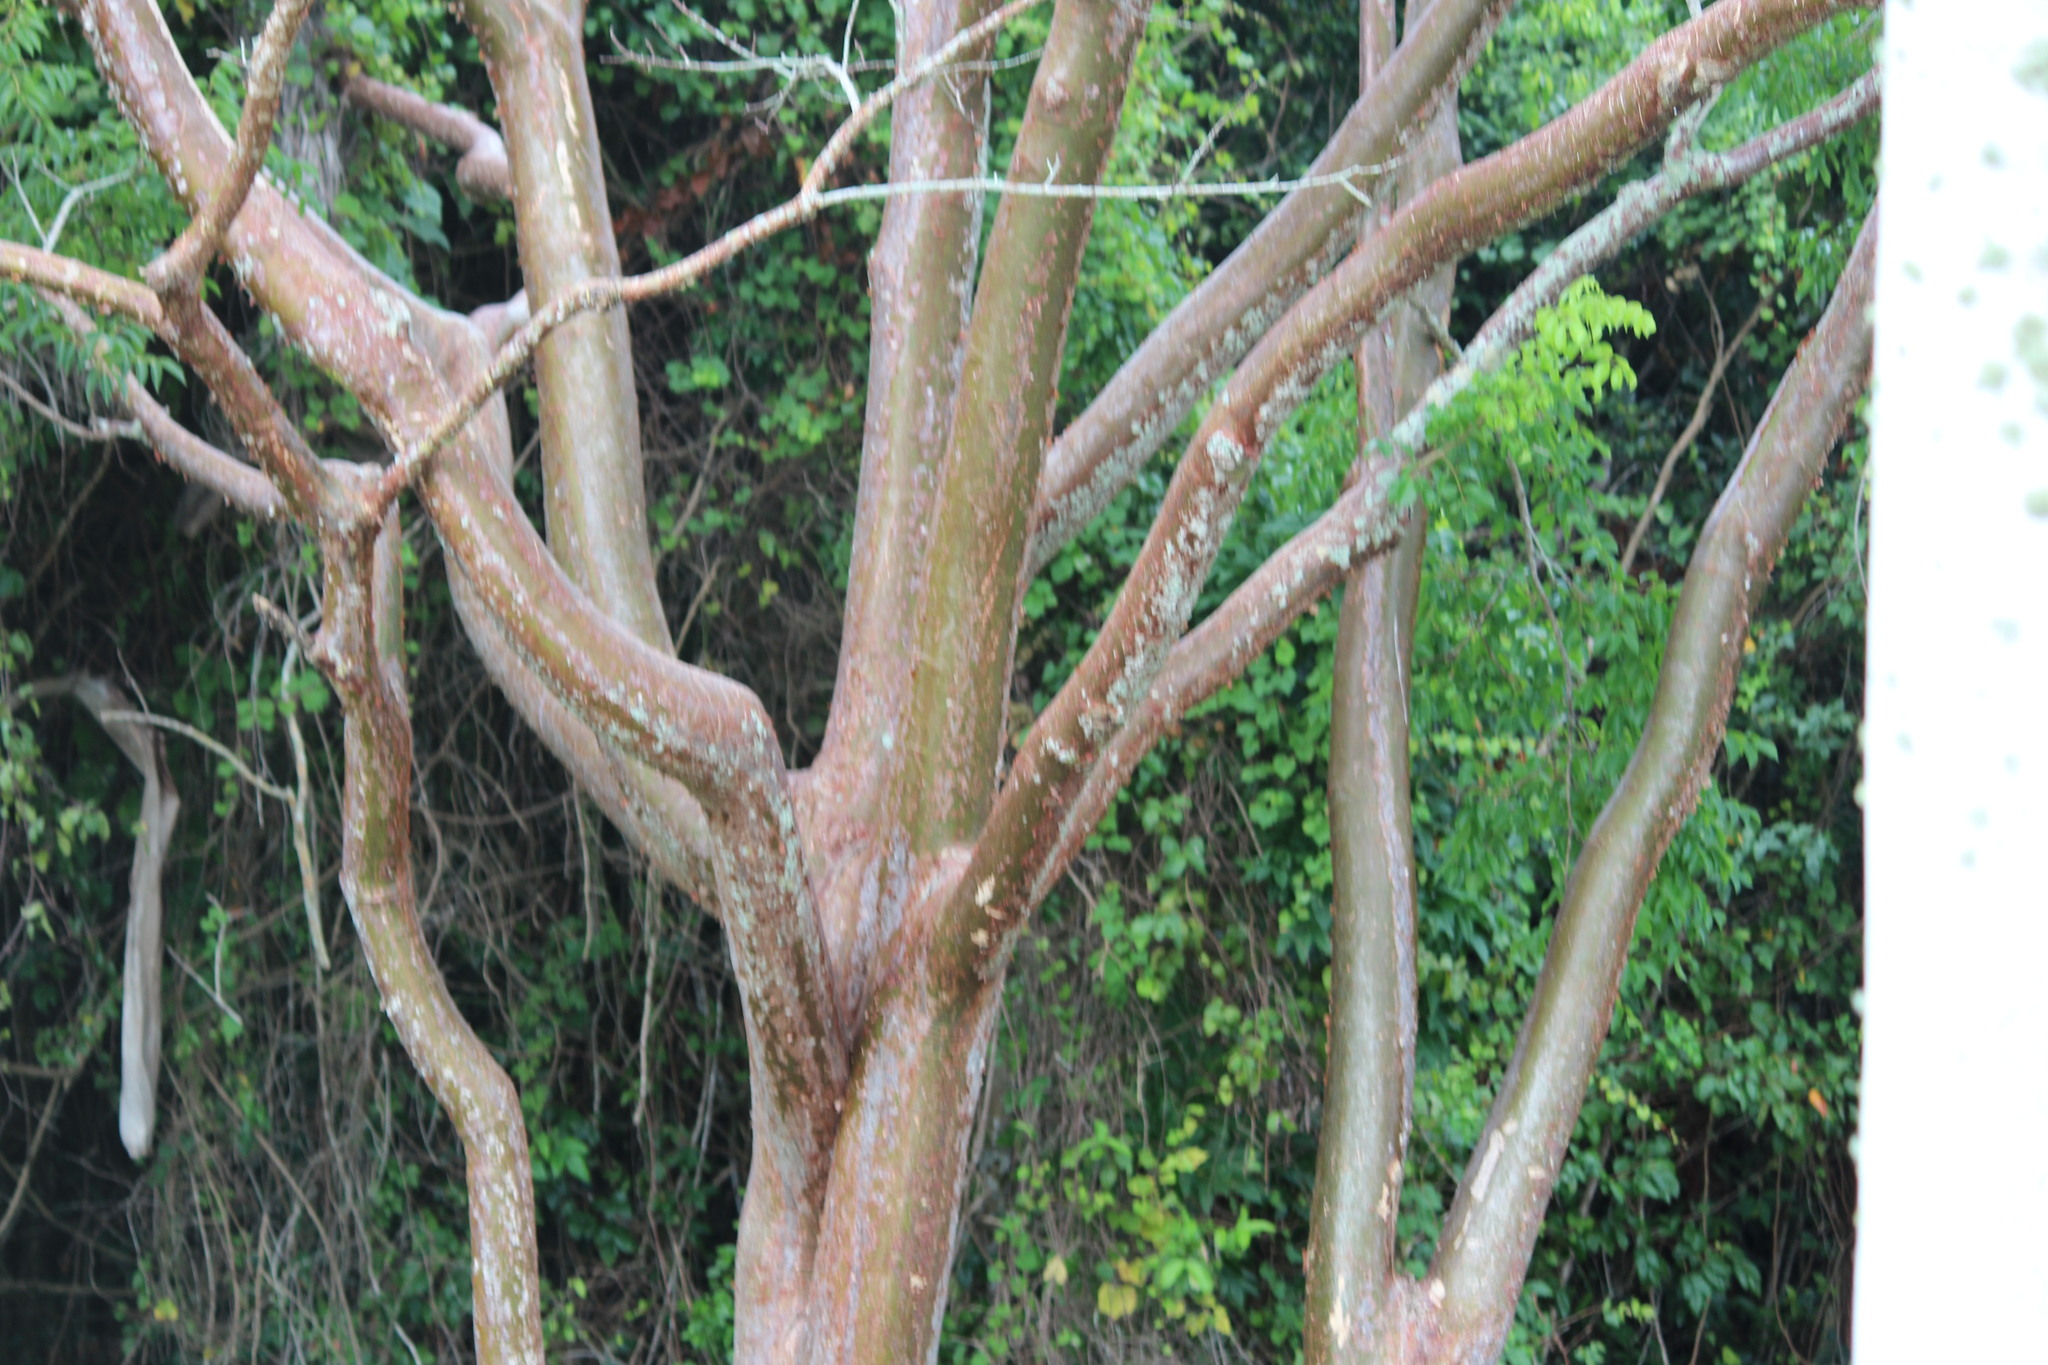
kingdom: Plantae
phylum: Tracheophyta
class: Magnoliopsida
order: Sapindales
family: Burseraceae
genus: Bursera
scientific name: Bursera simaruba
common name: Turpentine tree
